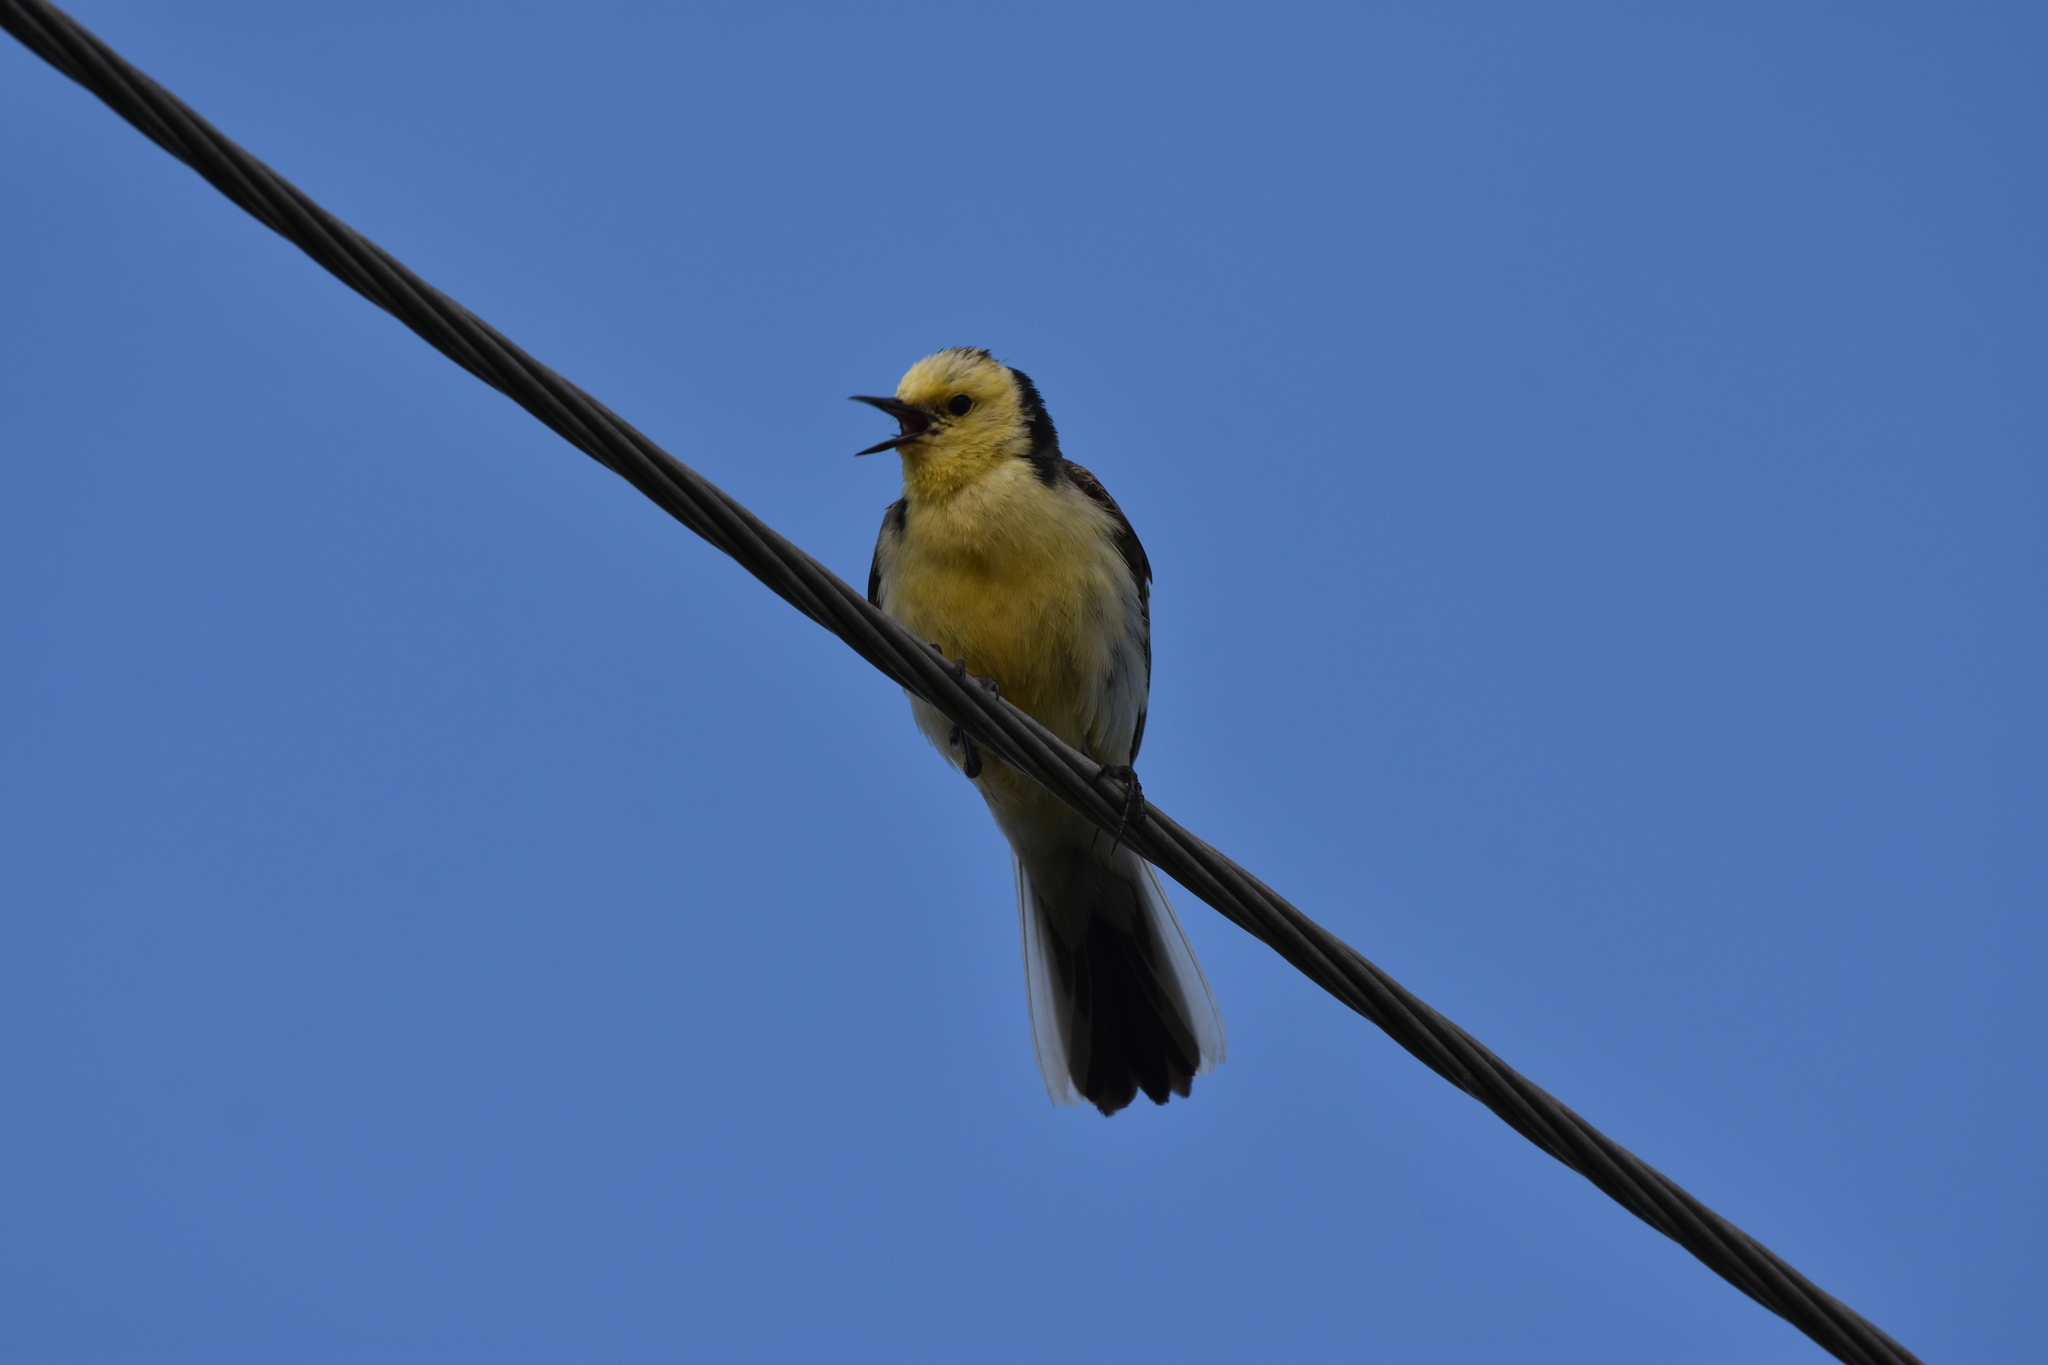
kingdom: Animalia
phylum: Chordata
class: Aves
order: Passeriformes
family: Motacillidae
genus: Motacilla
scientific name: Motacilla citreola
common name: Citrine wagtail
